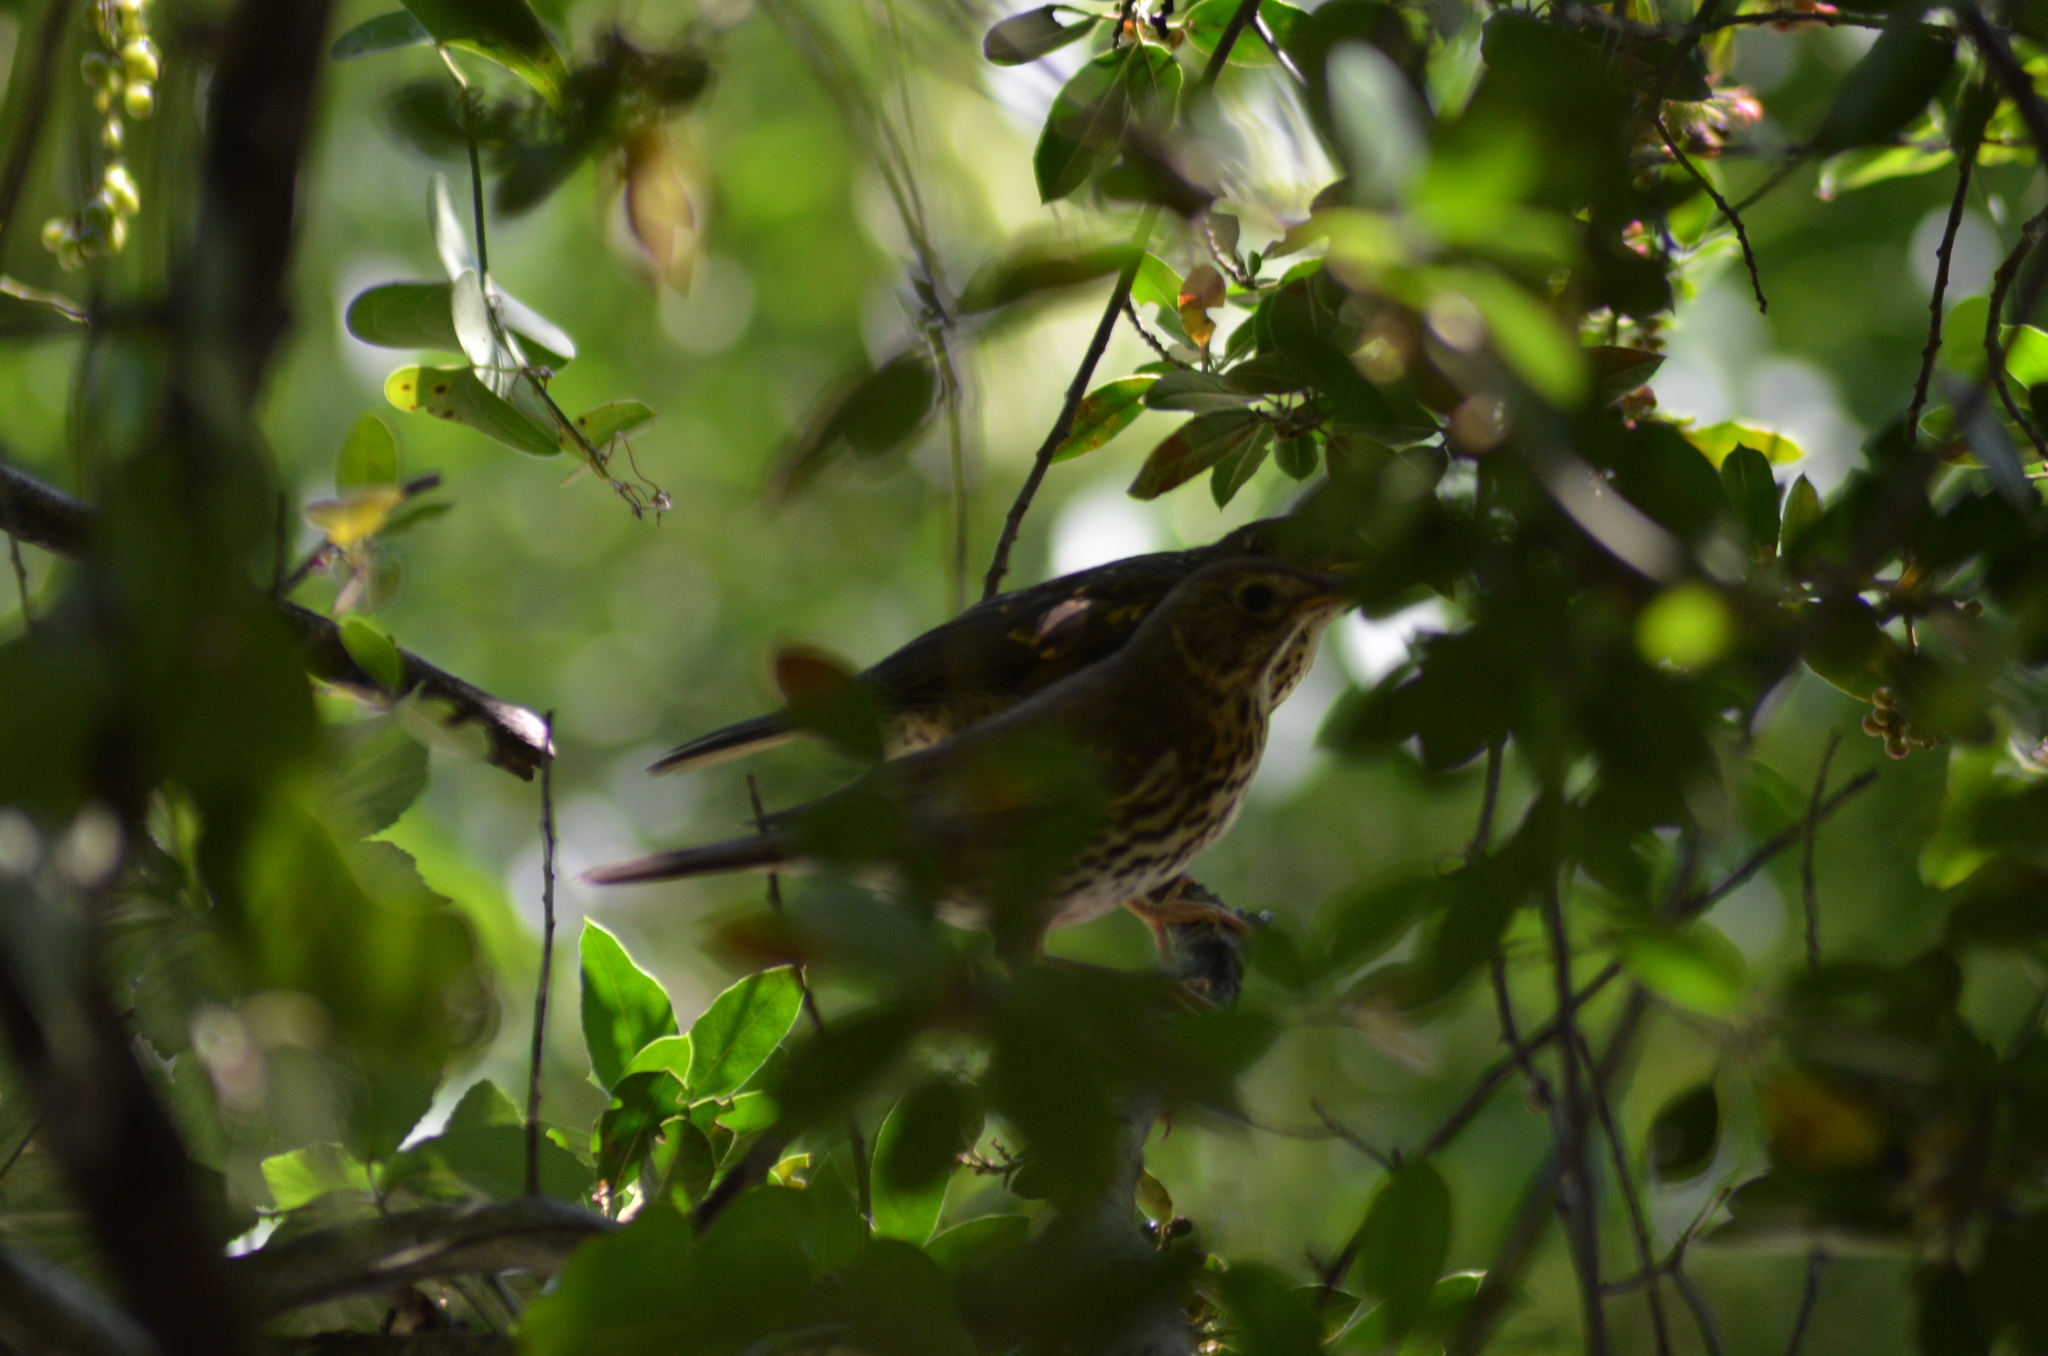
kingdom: Animalia
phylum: Chordata
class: Aves
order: Passeriformes
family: Turdidae
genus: Turdus
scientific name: Turdus philomelos
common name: Song thrush
